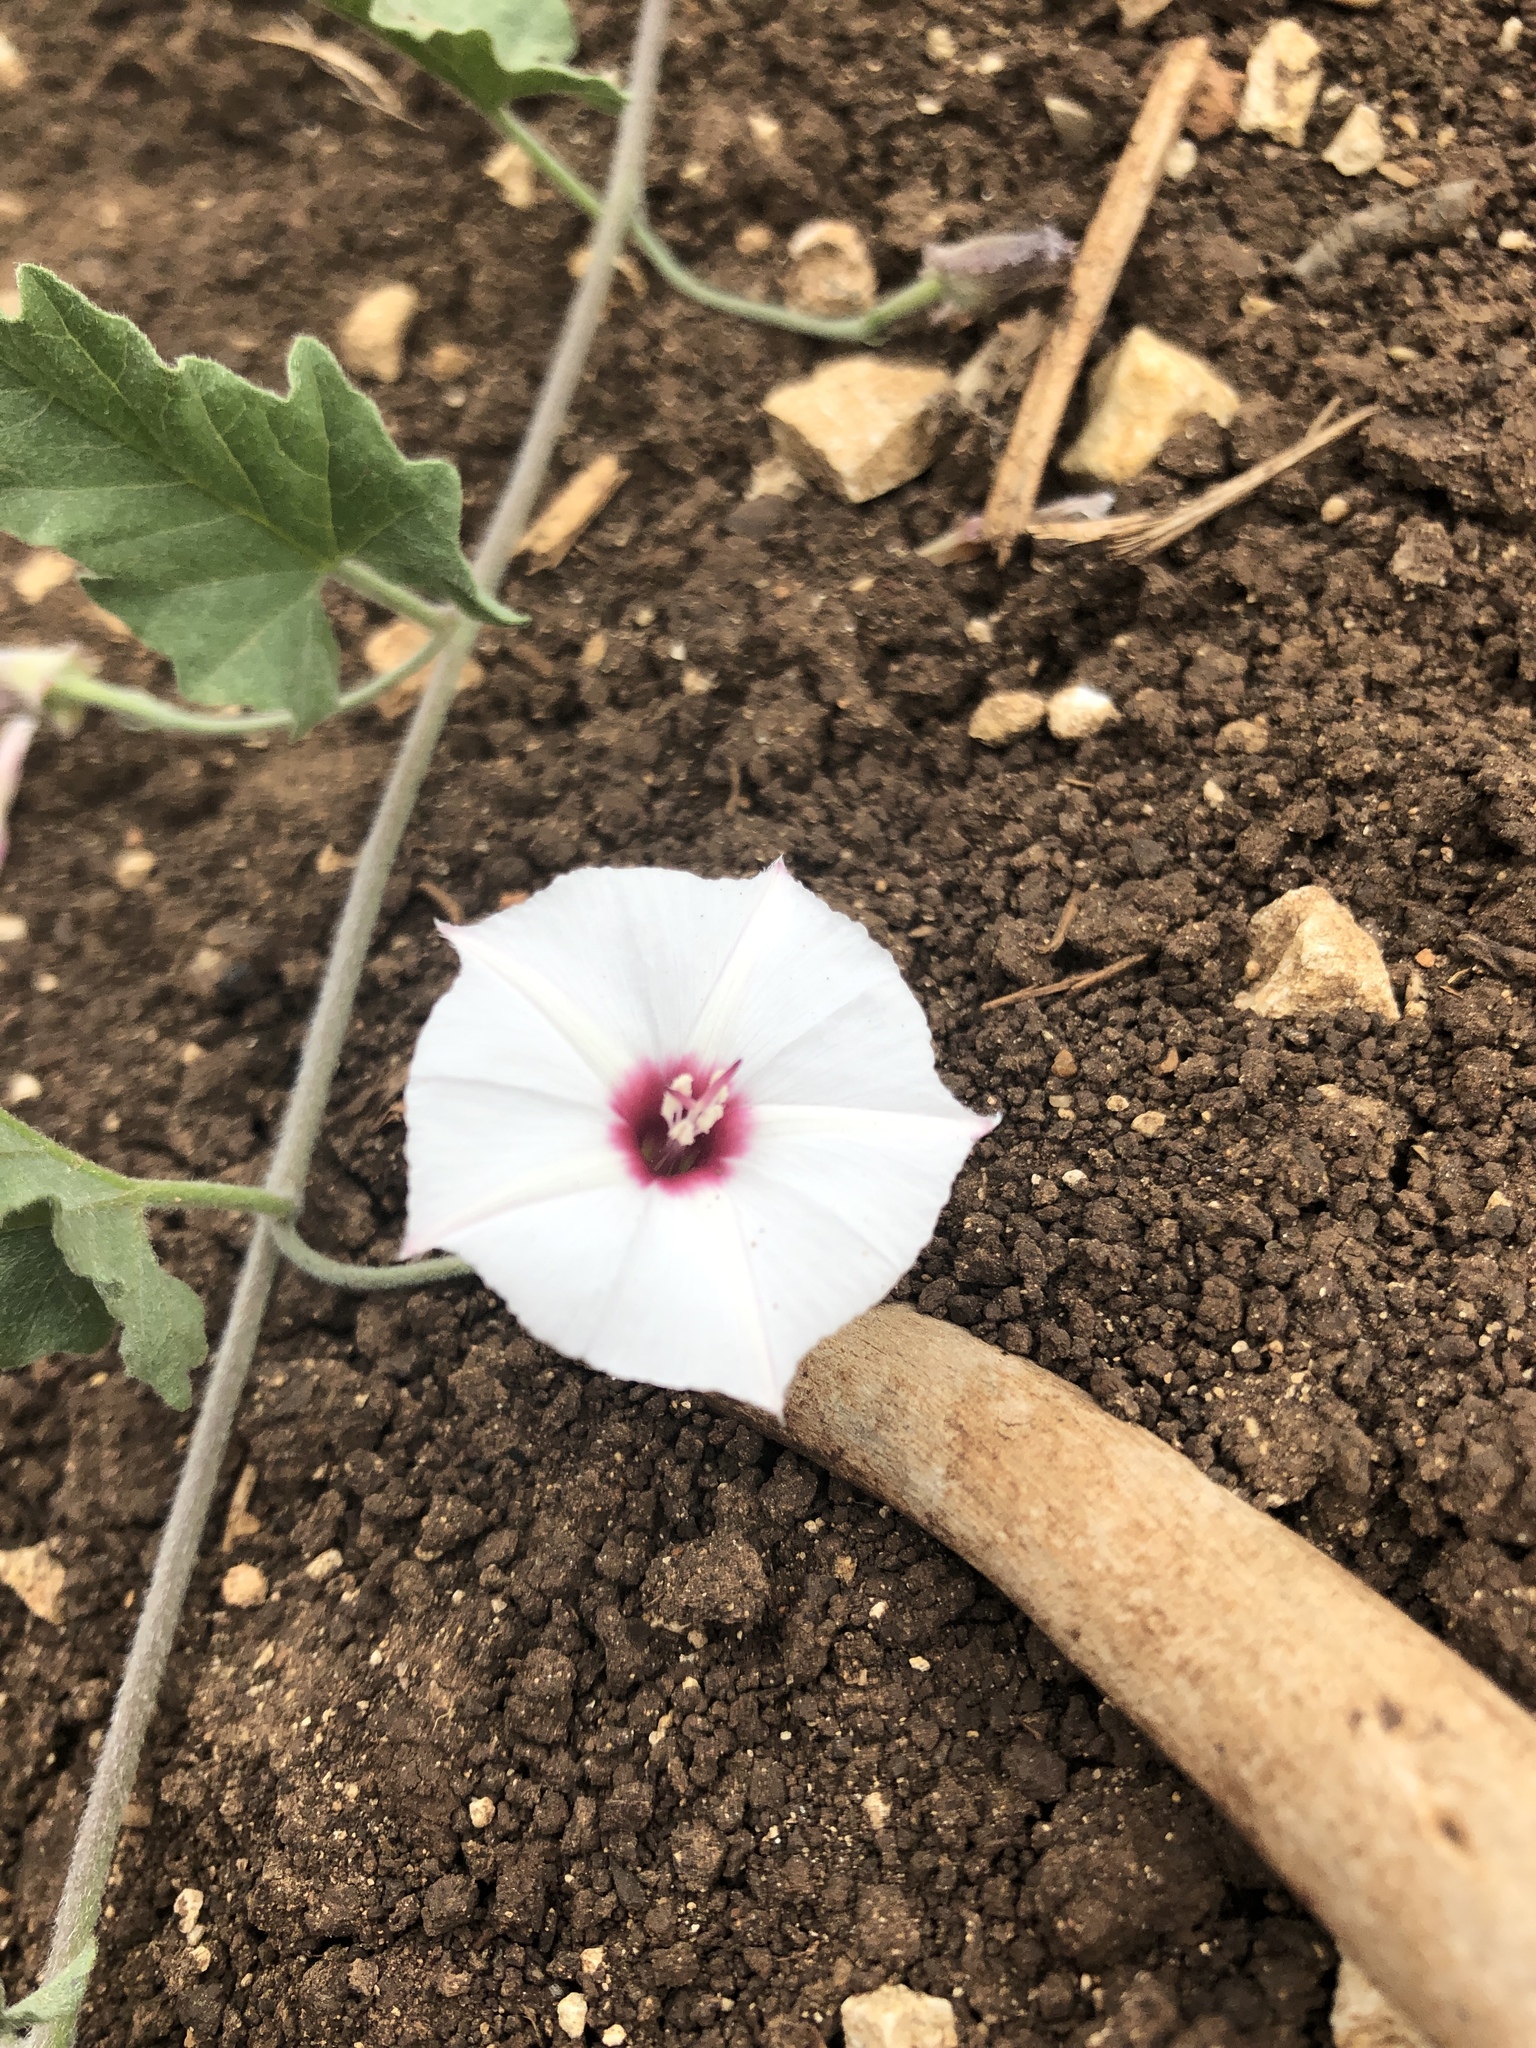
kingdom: Plantae
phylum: Tracheophyta
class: Magnoliopsida
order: Solanales
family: Convolvulaceae
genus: Convolvulus
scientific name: Convolvulus equitans
